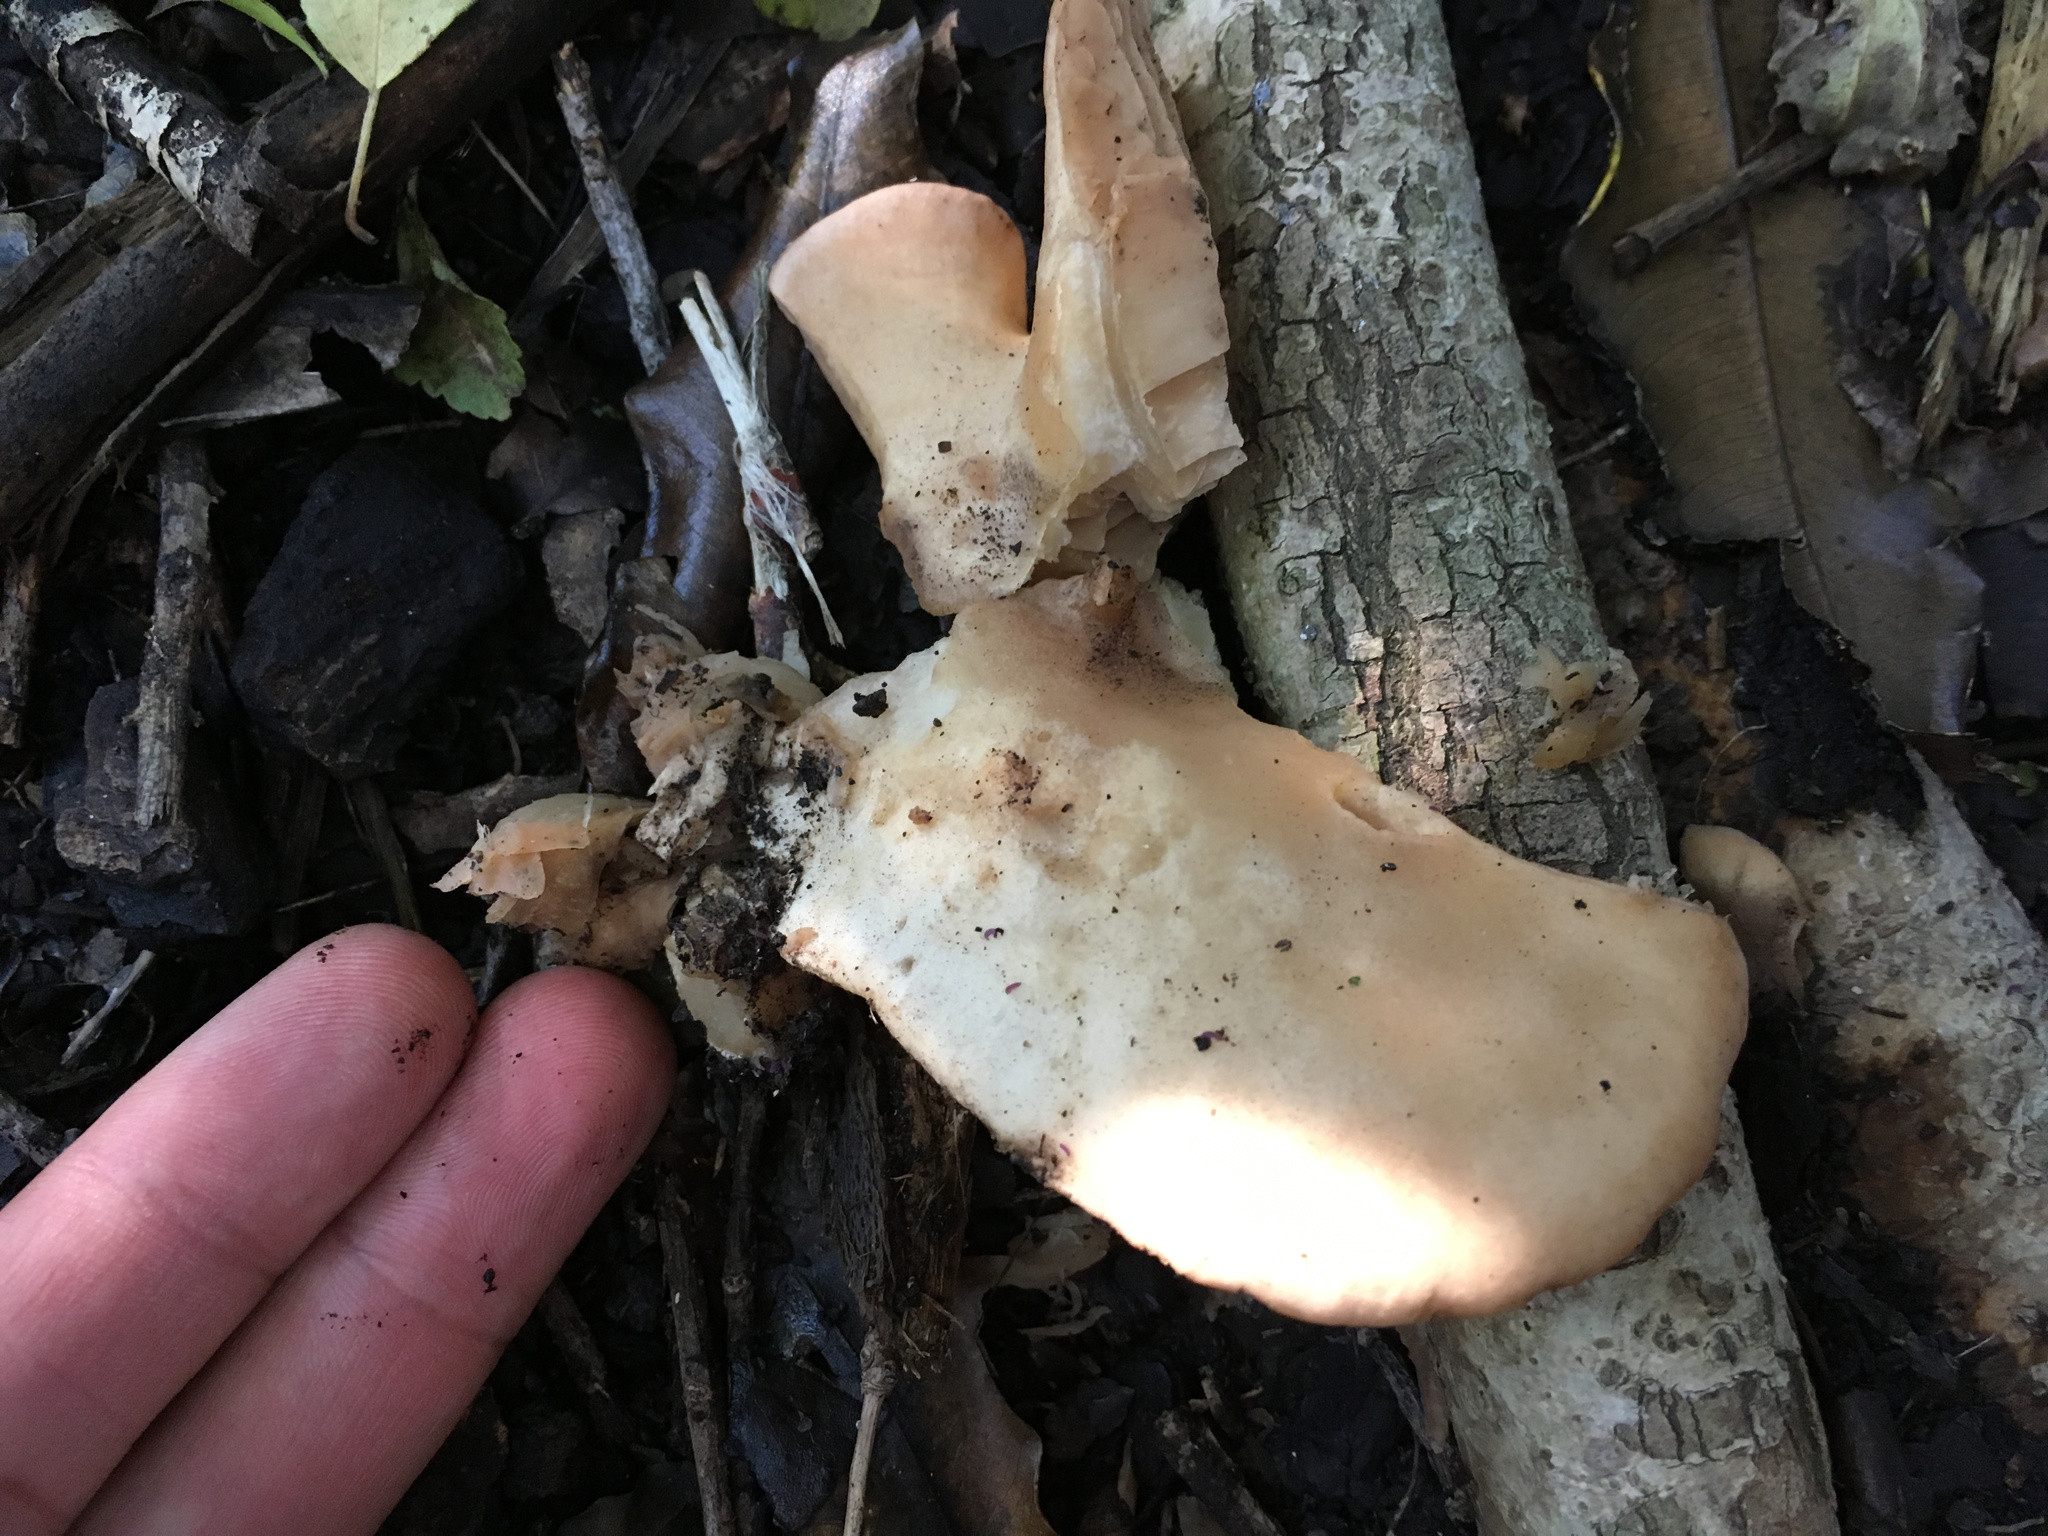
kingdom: Fungi
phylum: Basidiomycota
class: Agaricomycetes
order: Agaricales
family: Entolomataceae
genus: Clitopilus
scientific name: Clitopilus piperitus
